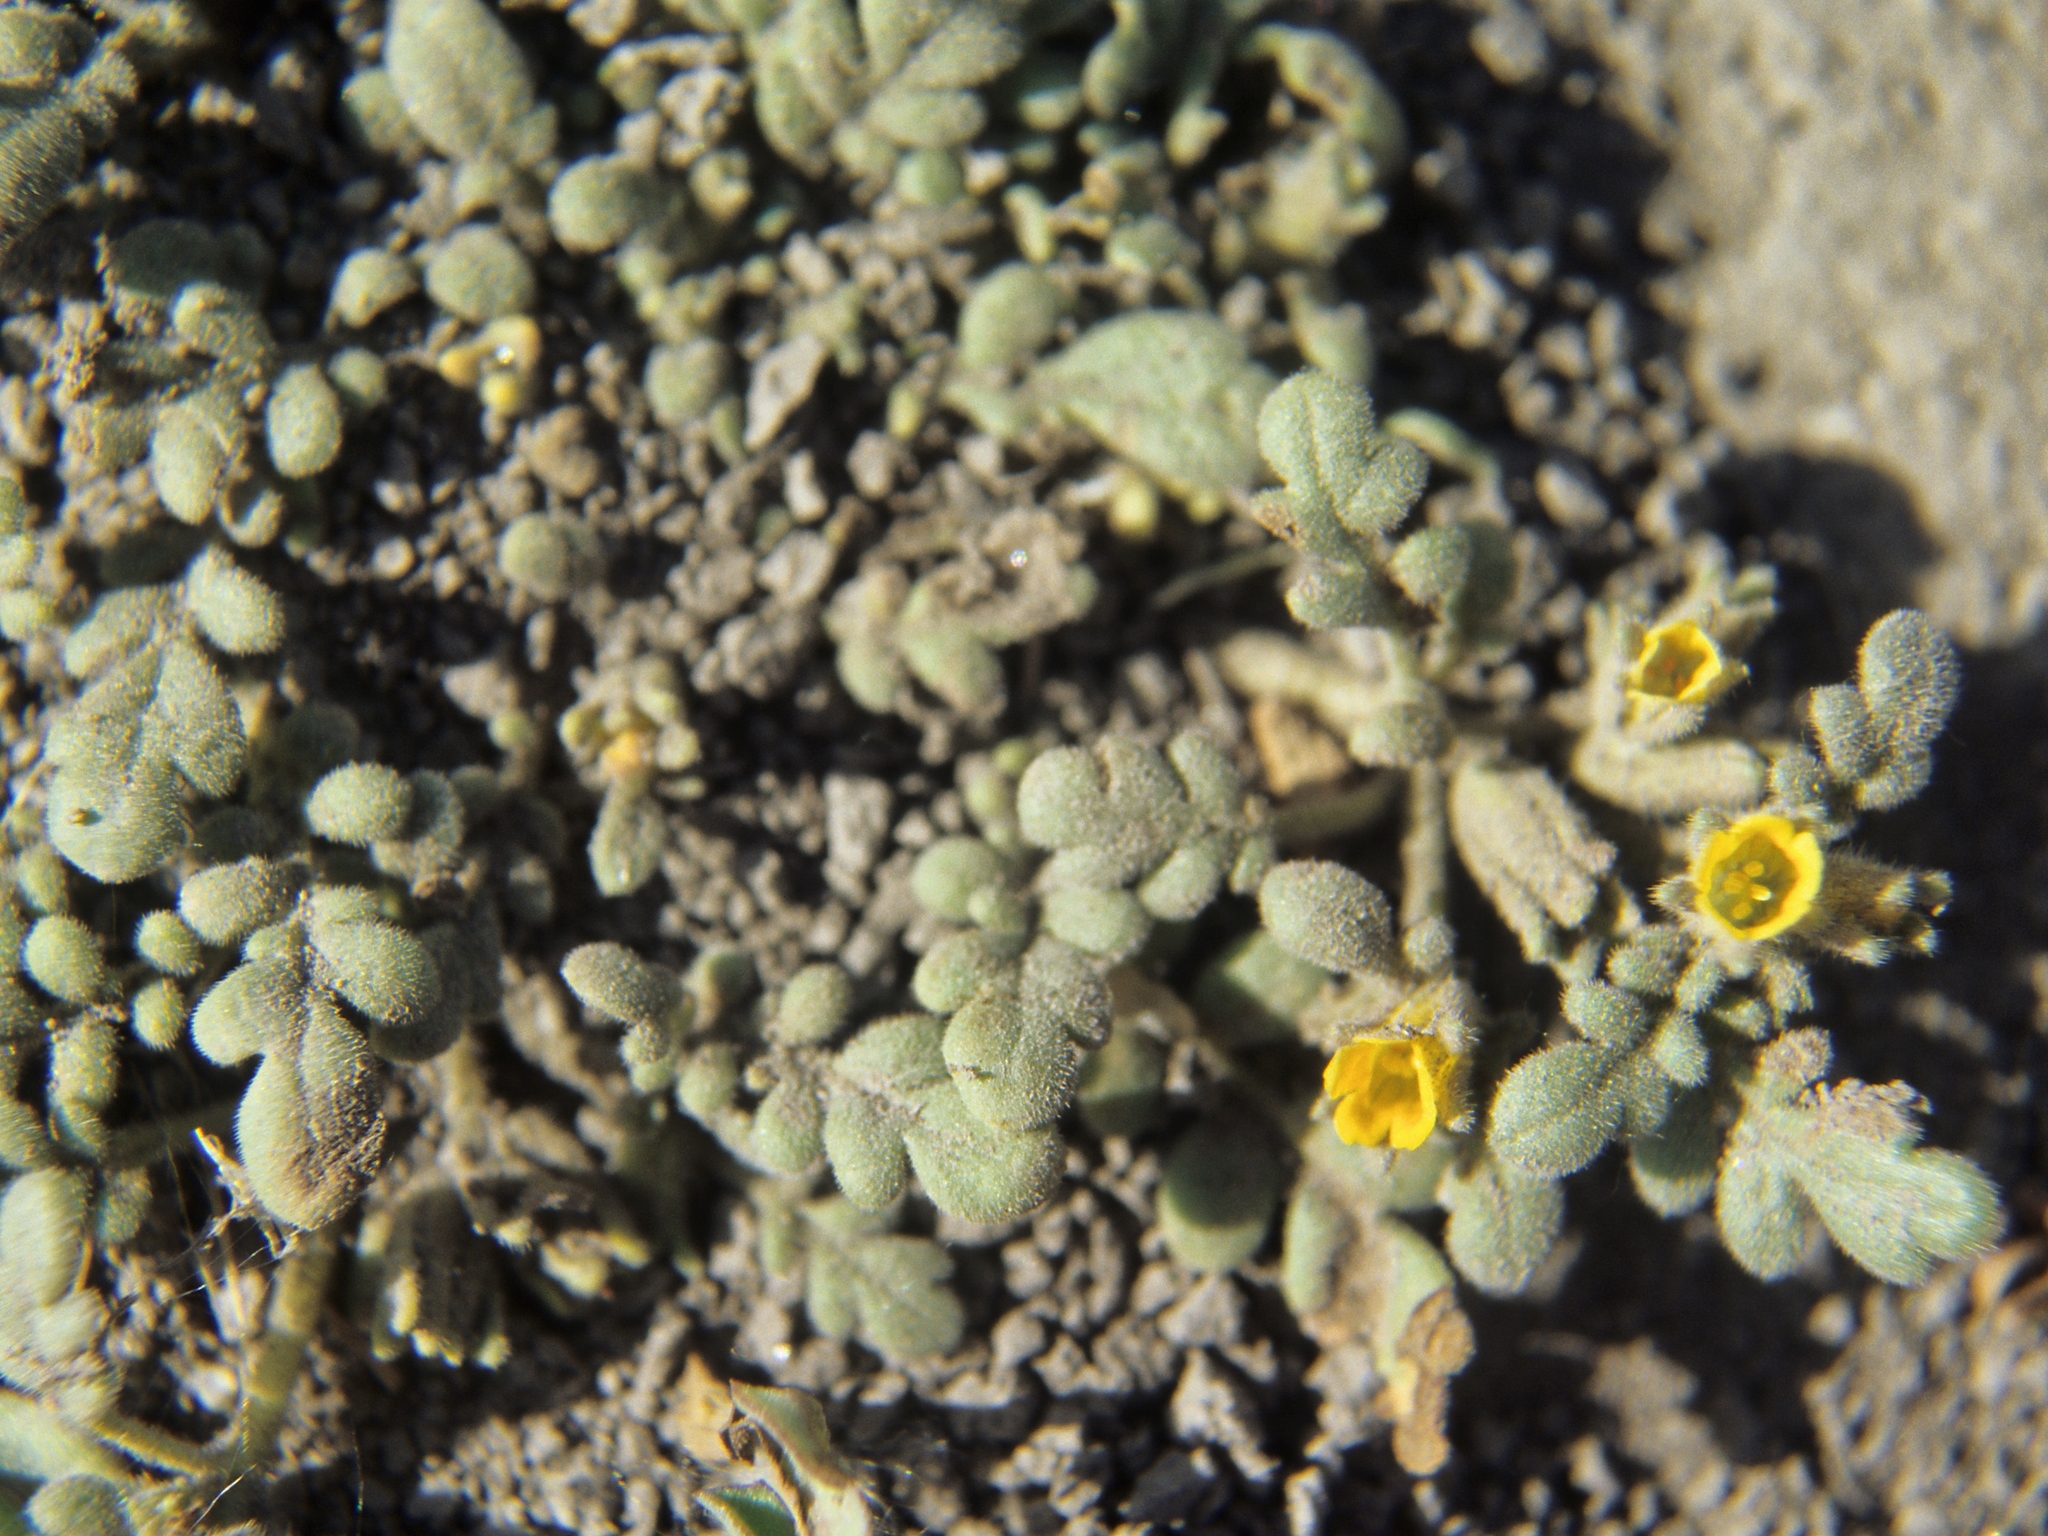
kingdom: Plantae
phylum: Tracheophyta
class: Magnoliopsida
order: Boraginales
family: Hydrophyllaceae
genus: Phacelia
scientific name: Phacelia inundata
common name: Playa phacelia
